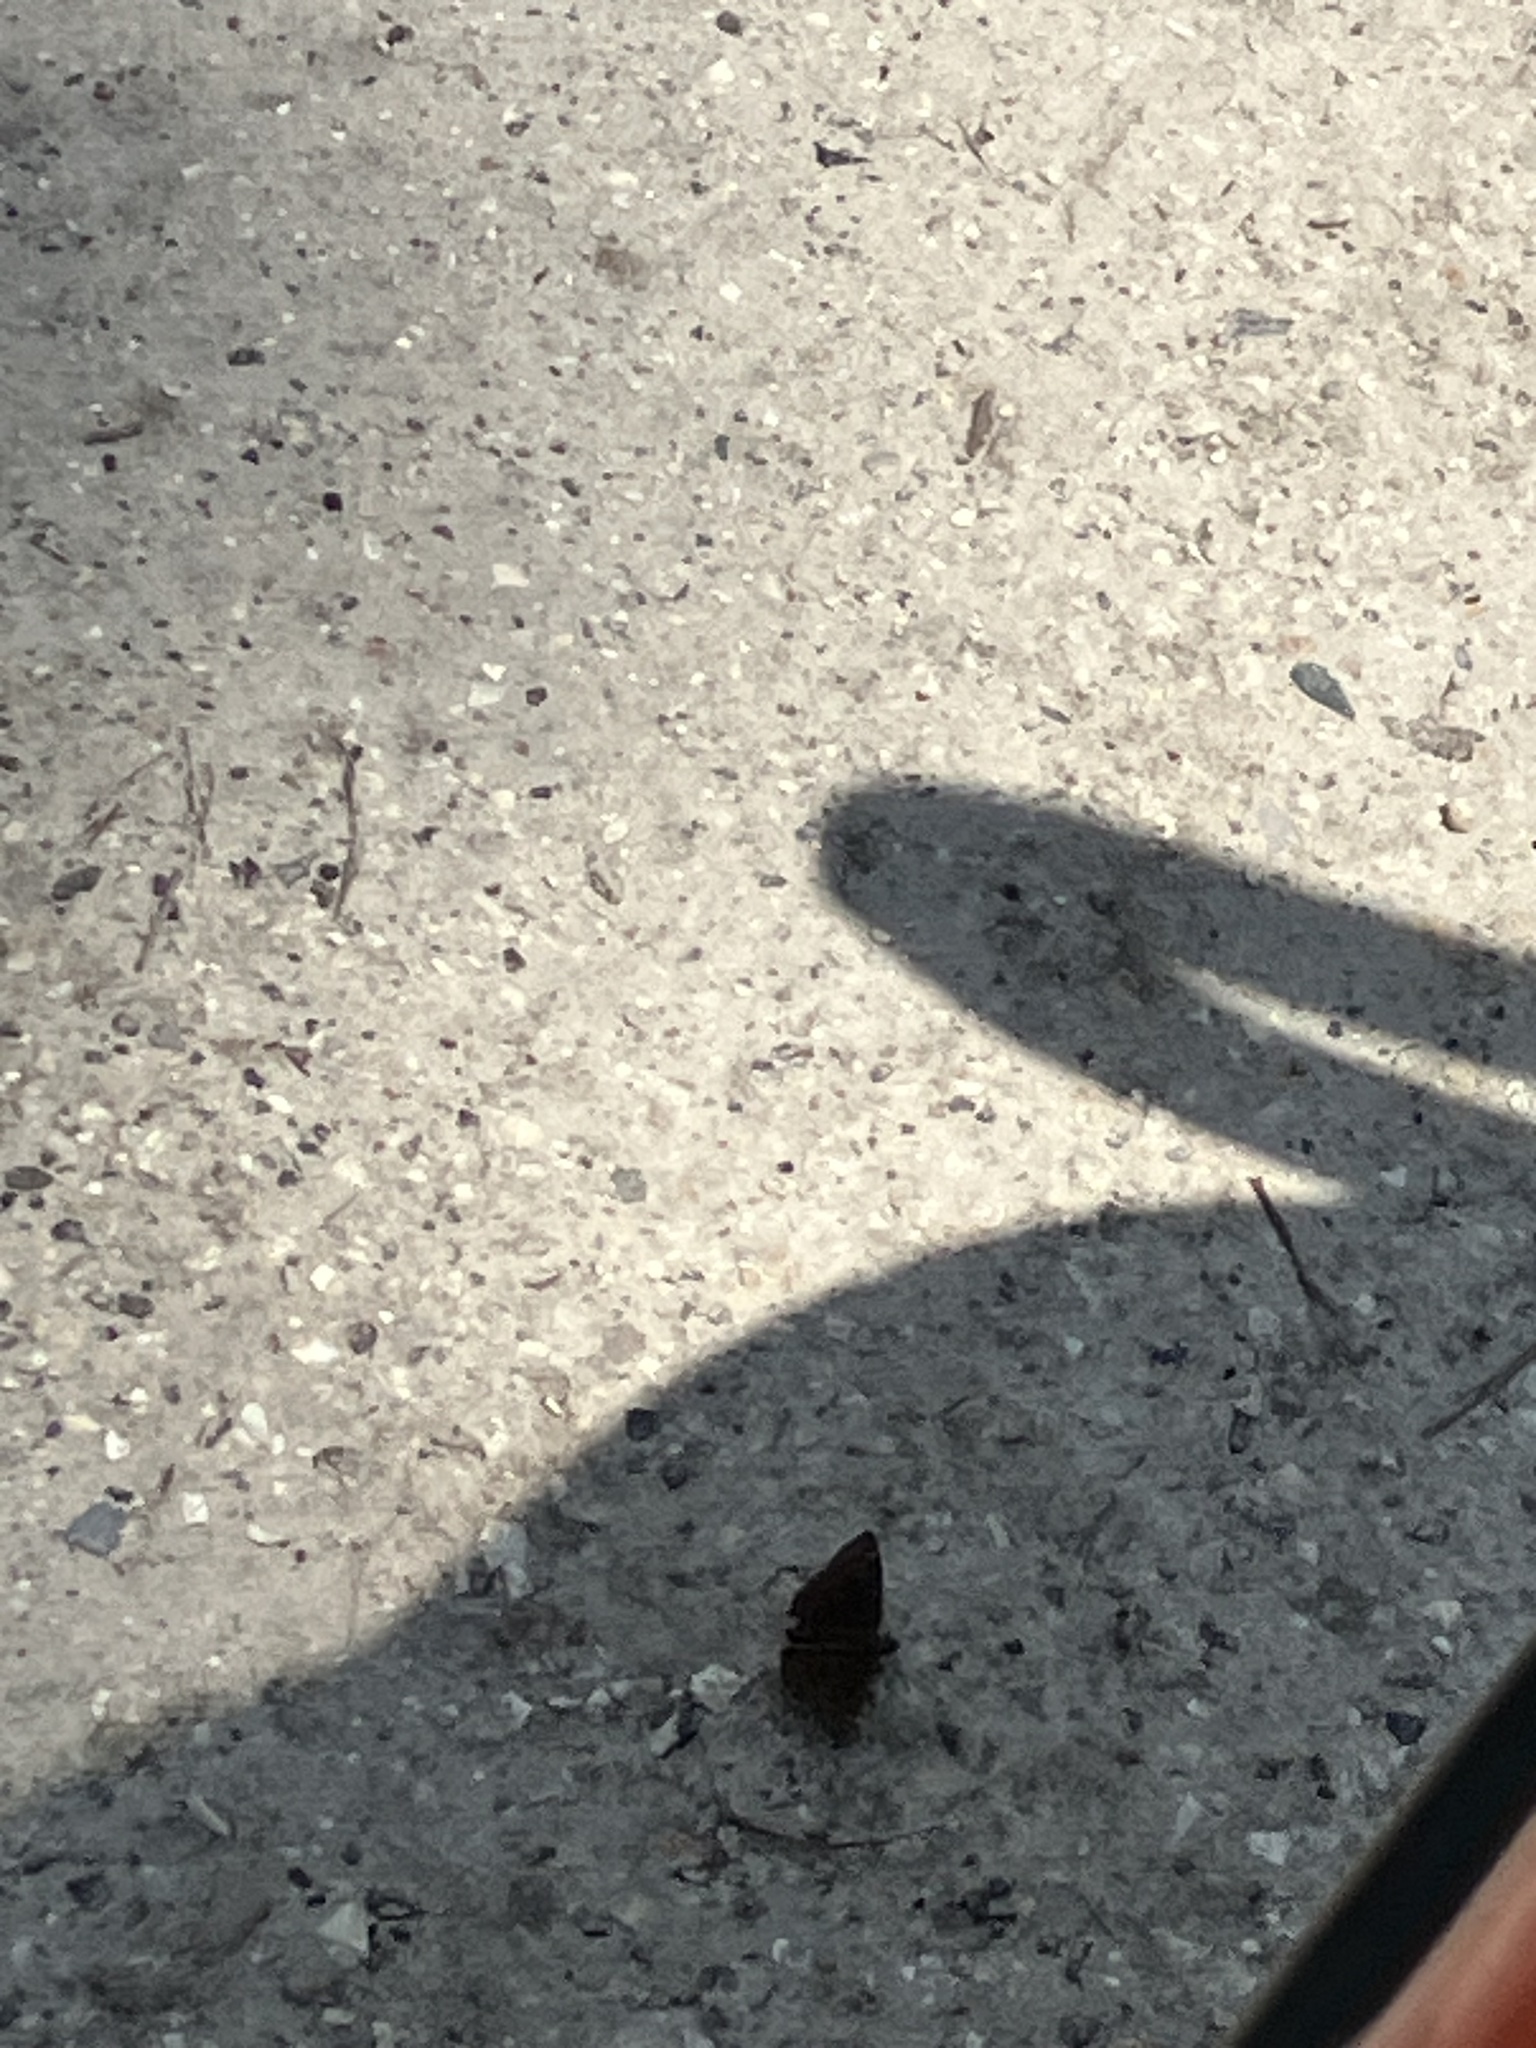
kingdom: Animalia
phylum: Arthropoda
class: Insecta
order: Lepidoptera
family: Hesperiidae
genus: Erynnis
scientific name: Erynnis horatius
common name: Horace's duskywing
